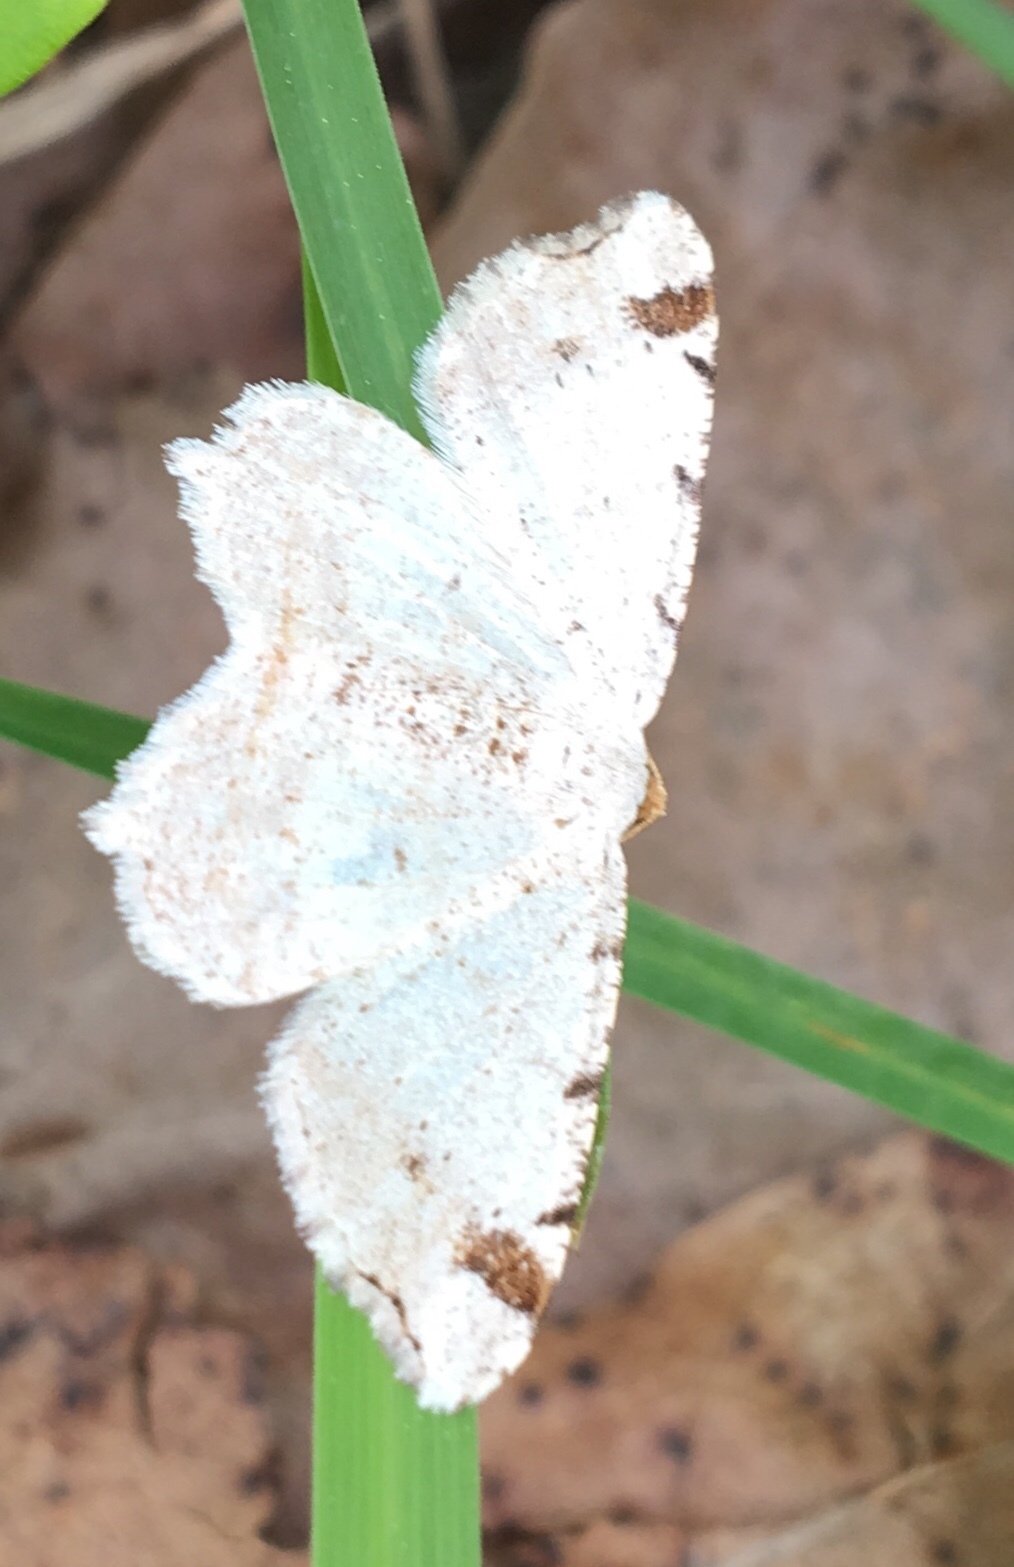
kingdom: Animalia
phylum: Arthropoda
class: Insecta
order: Lepidoptera
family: Geometridae
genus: Macaria
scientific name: Macaria bisignata
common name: Red-headed inchworm
